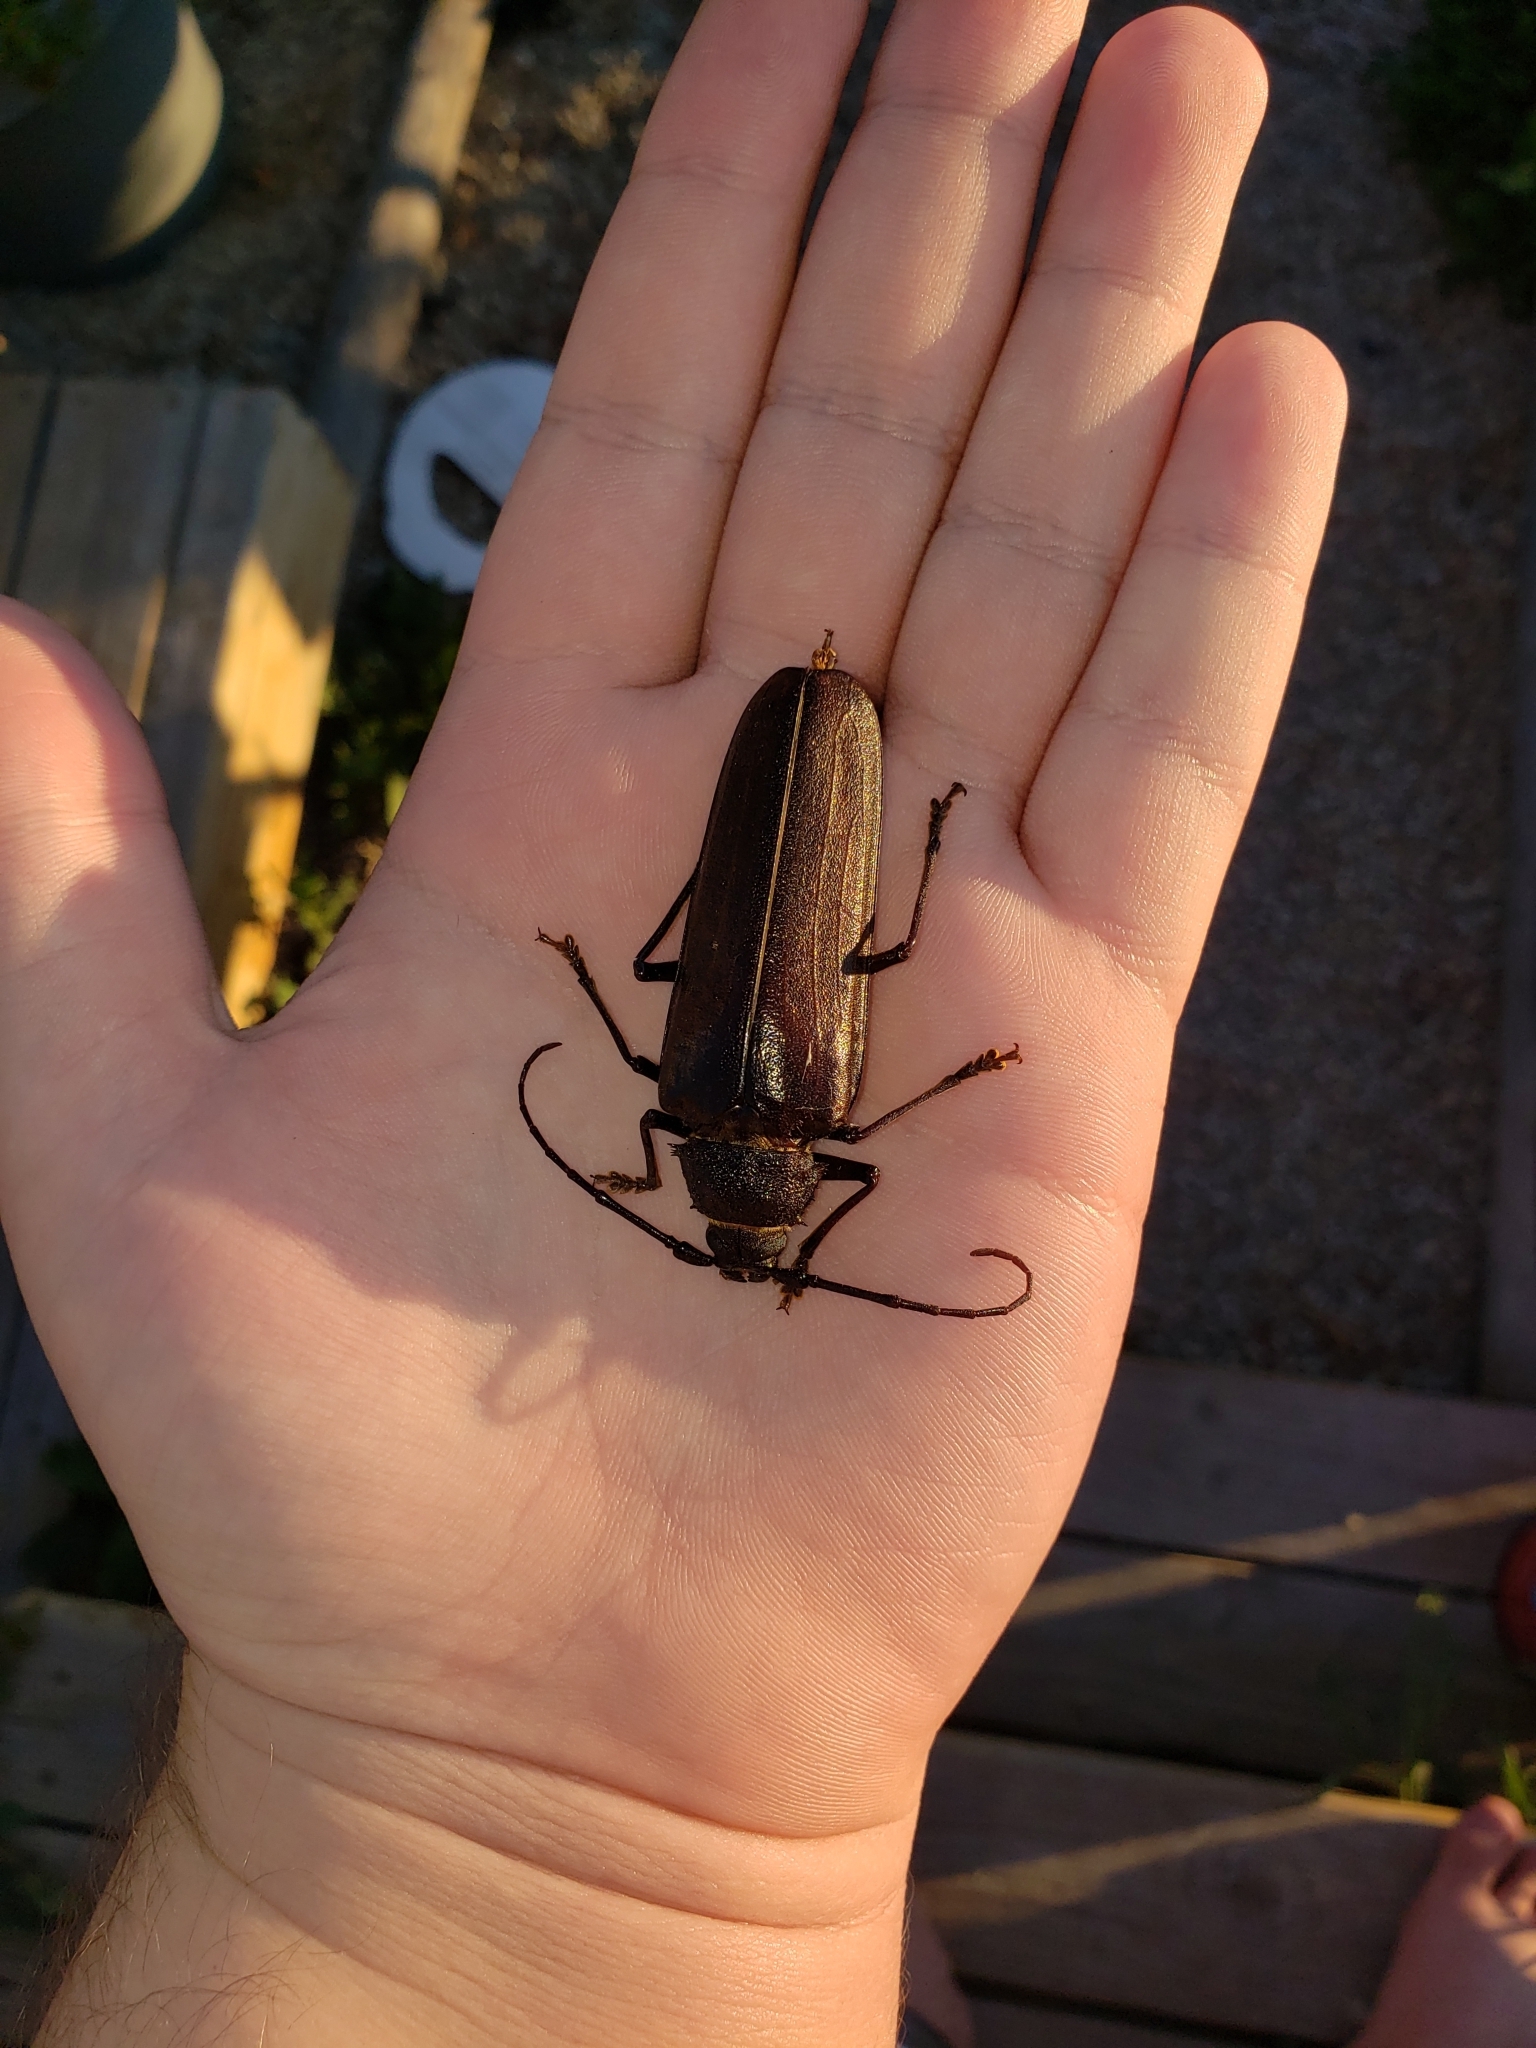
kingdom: Animalia
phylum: Arthropoda
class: Insecta
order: Coleoptera
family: Cerambycidae
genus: Trichocnemis
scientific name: Trichocnemis spiculatus
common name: Long-horned beetle
